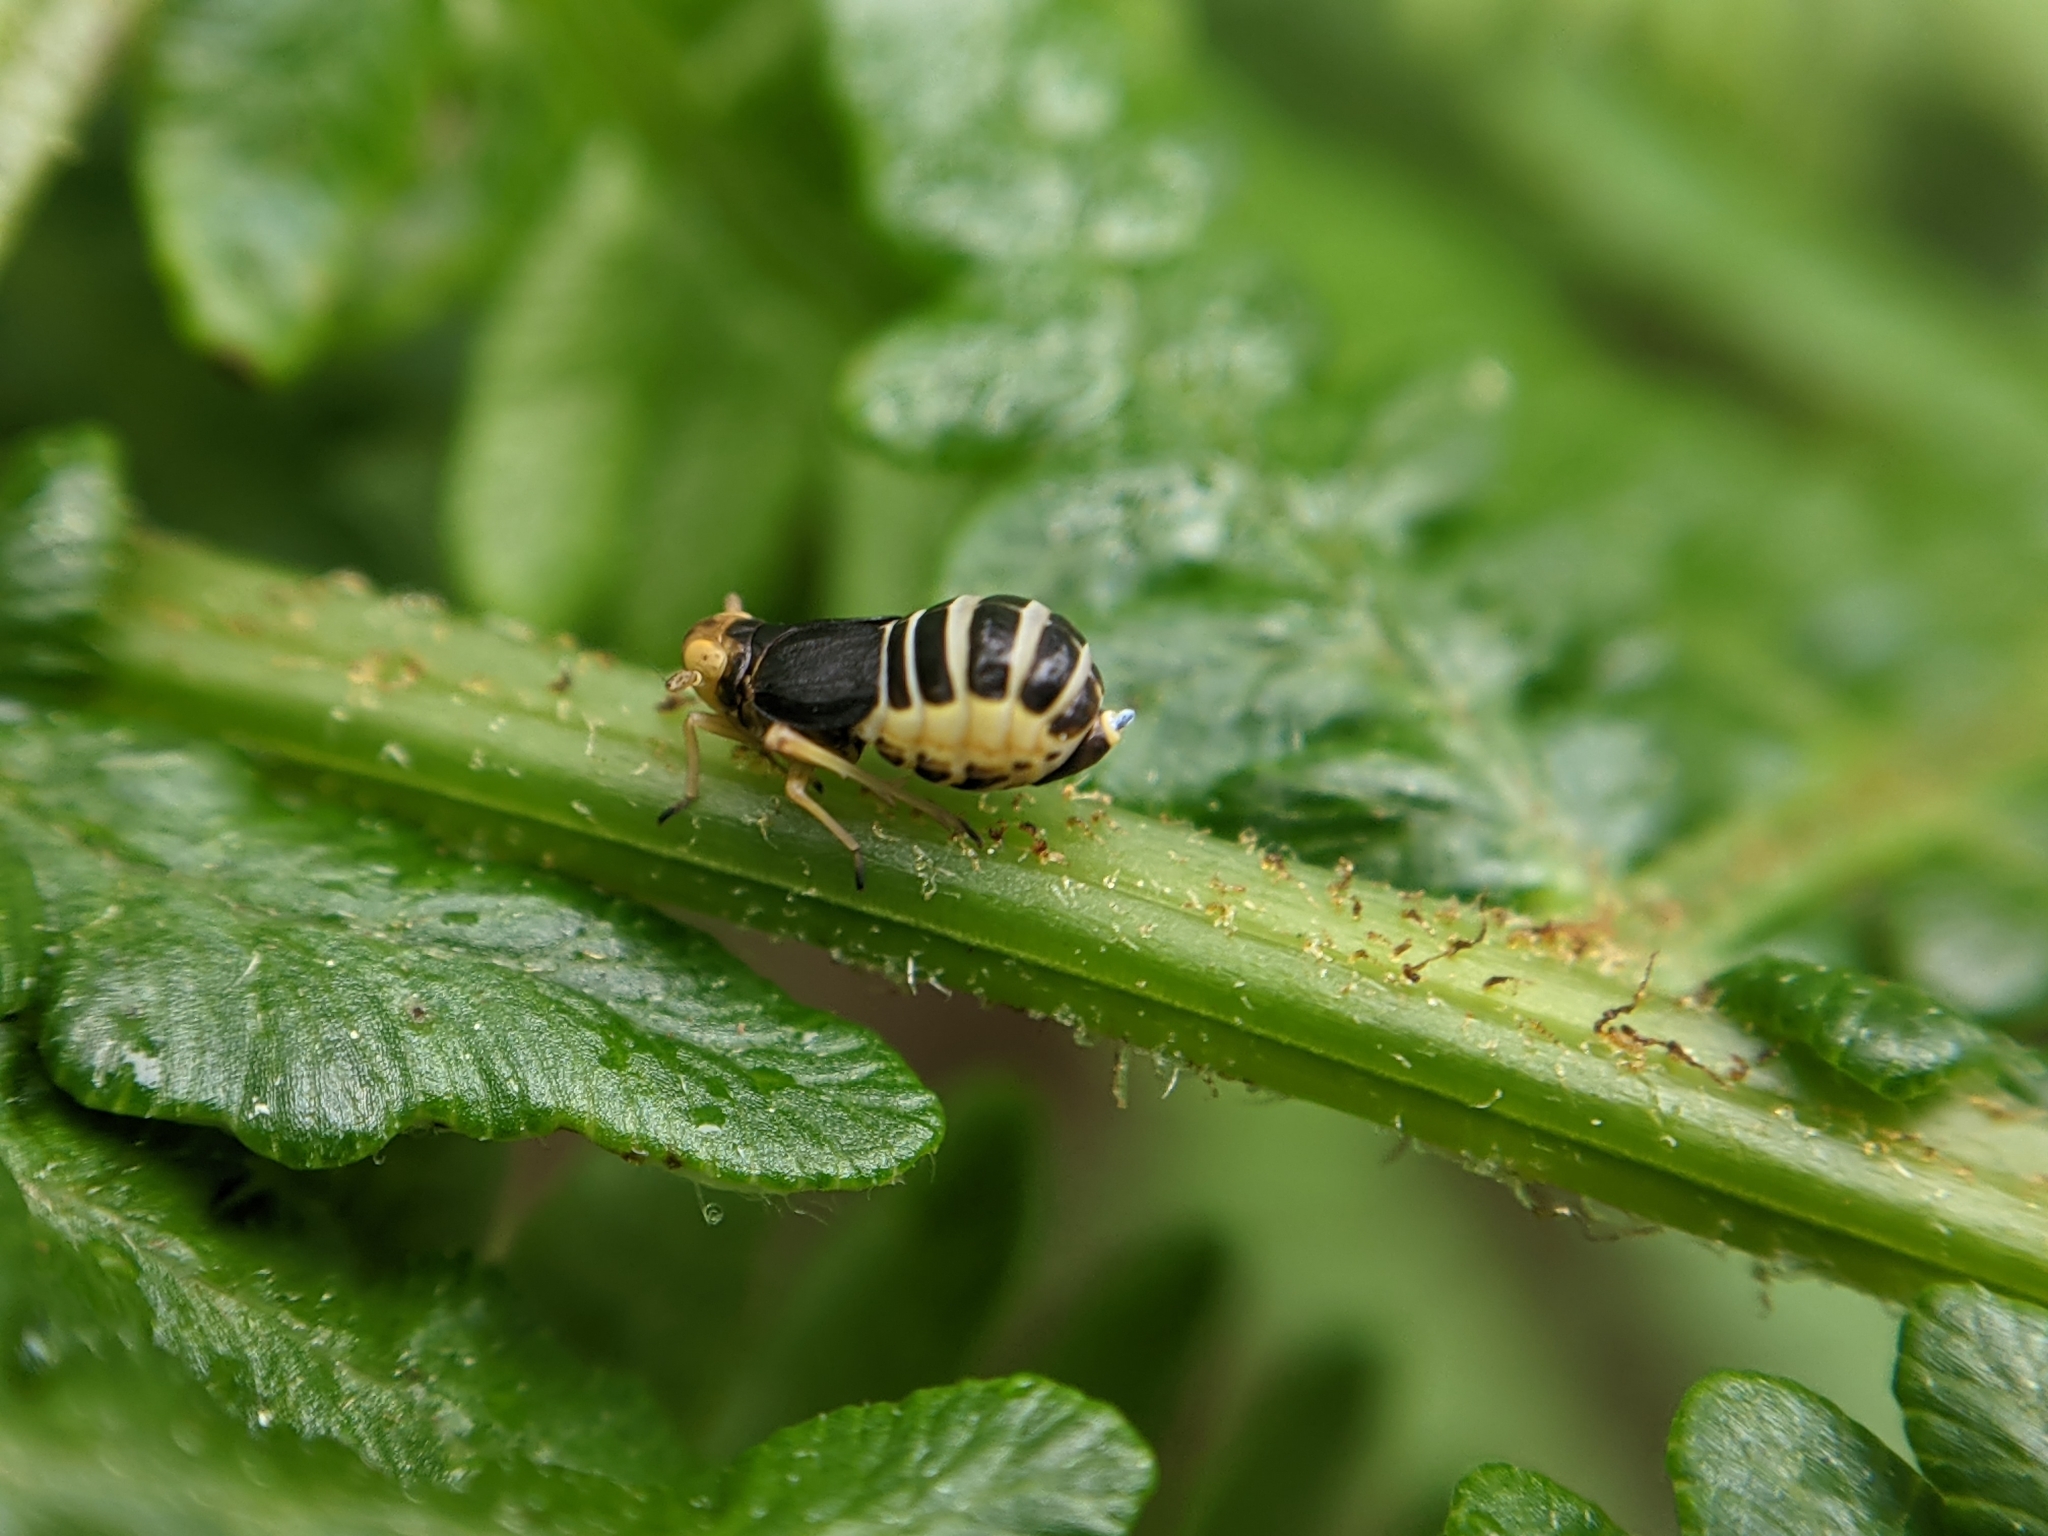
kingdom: Animalia
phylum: Arthropoda
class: Insecta
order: Hemiptera
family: Delphacidae
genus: Ditropis
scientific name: Ditropis pteridis
